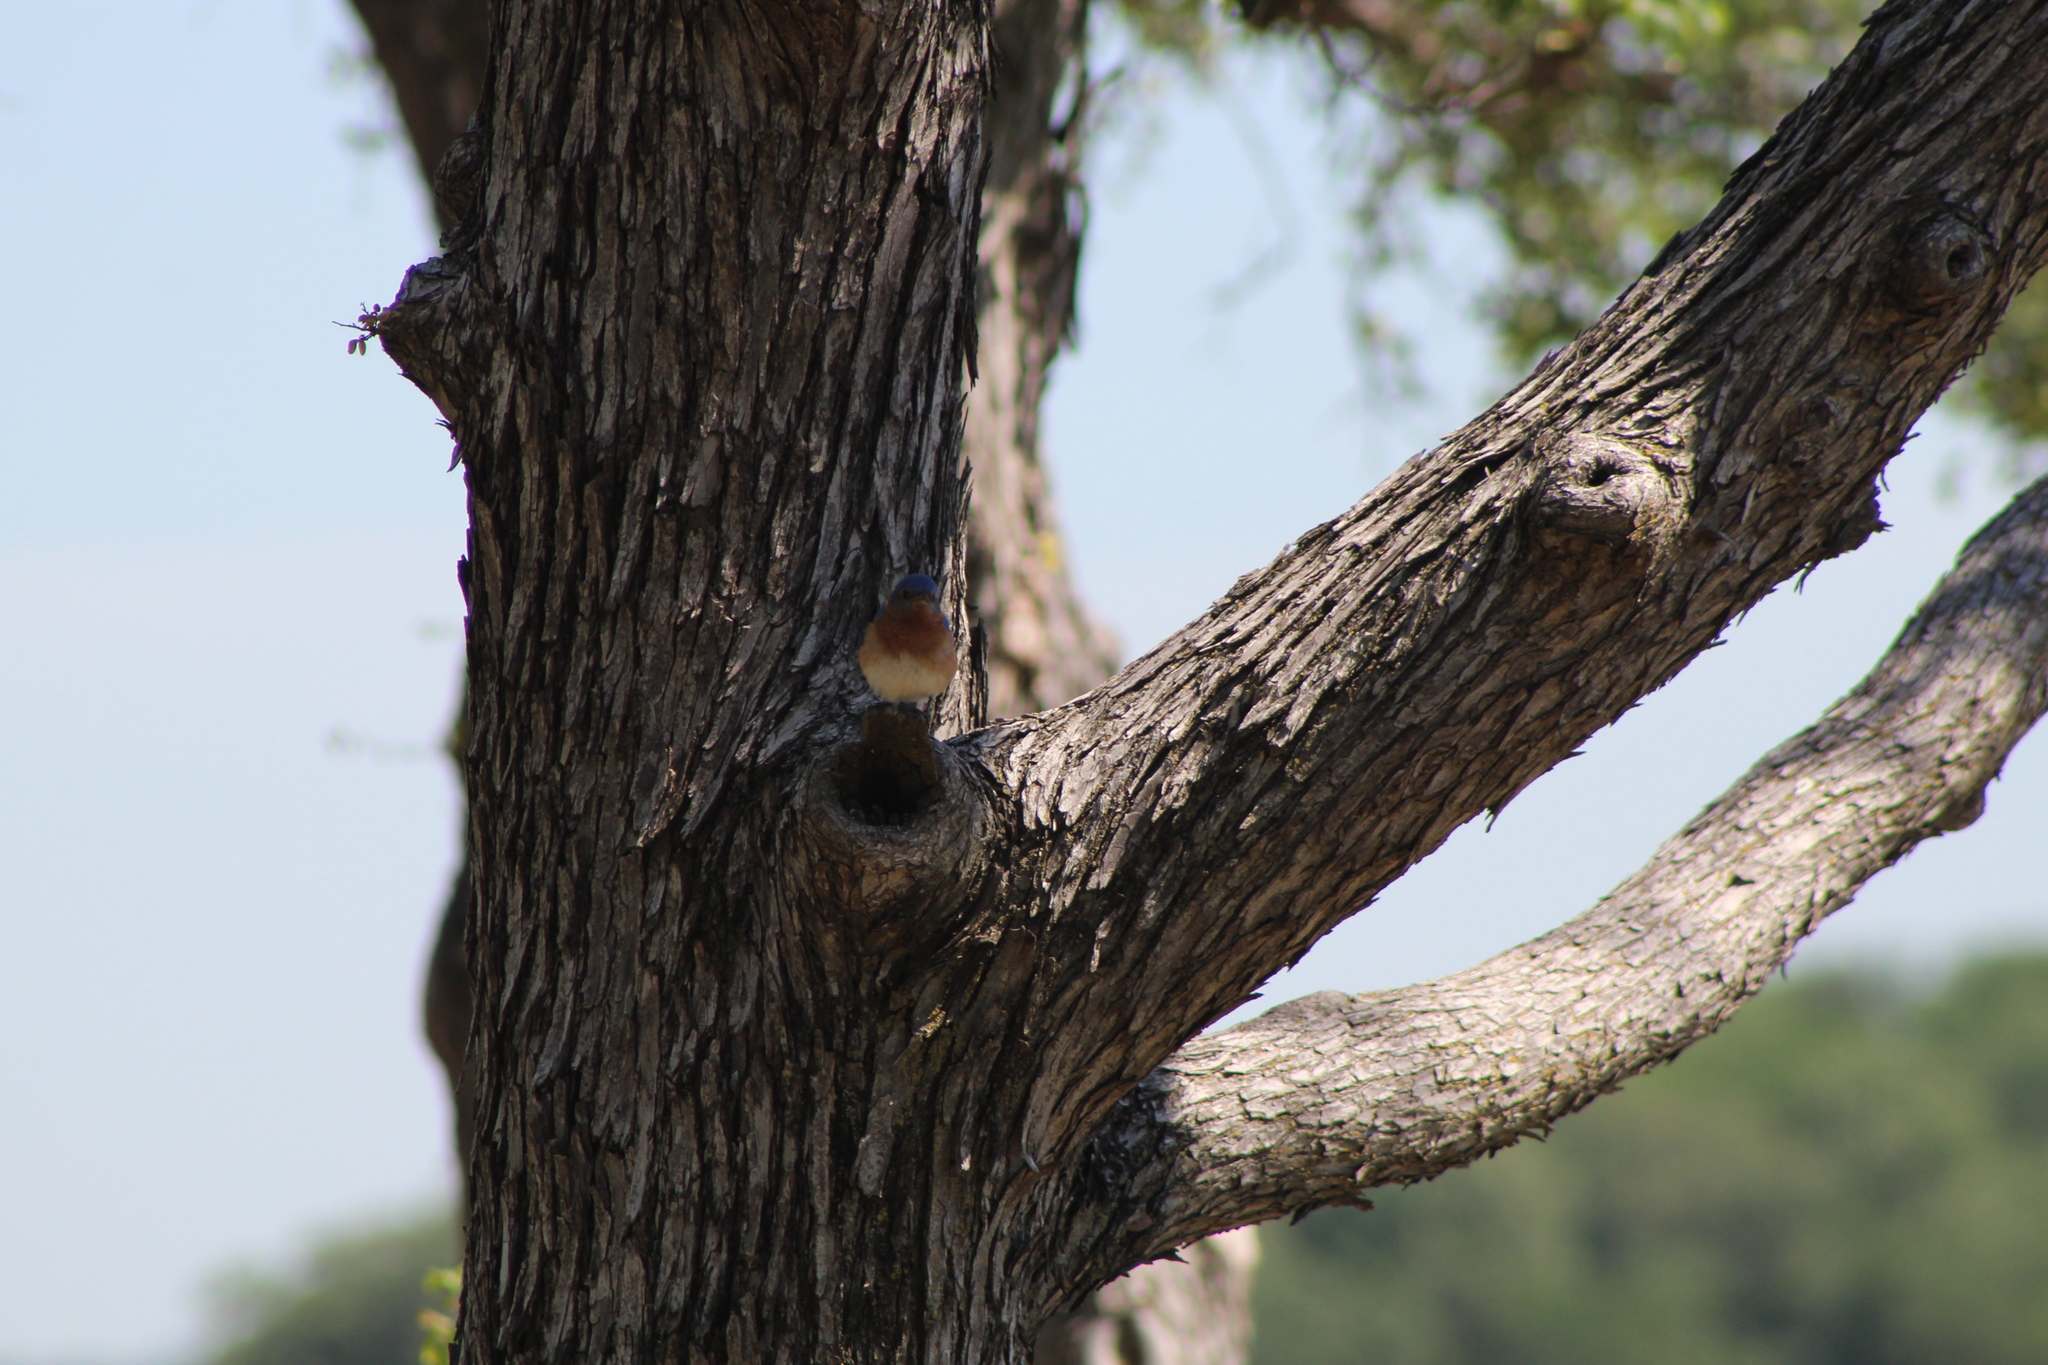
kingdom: Animalia
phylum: Chordata
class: Aves
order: Passeriformes
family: Turdidae
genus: Sialia
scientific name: Sialia sialis
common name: Eastern bluebird
